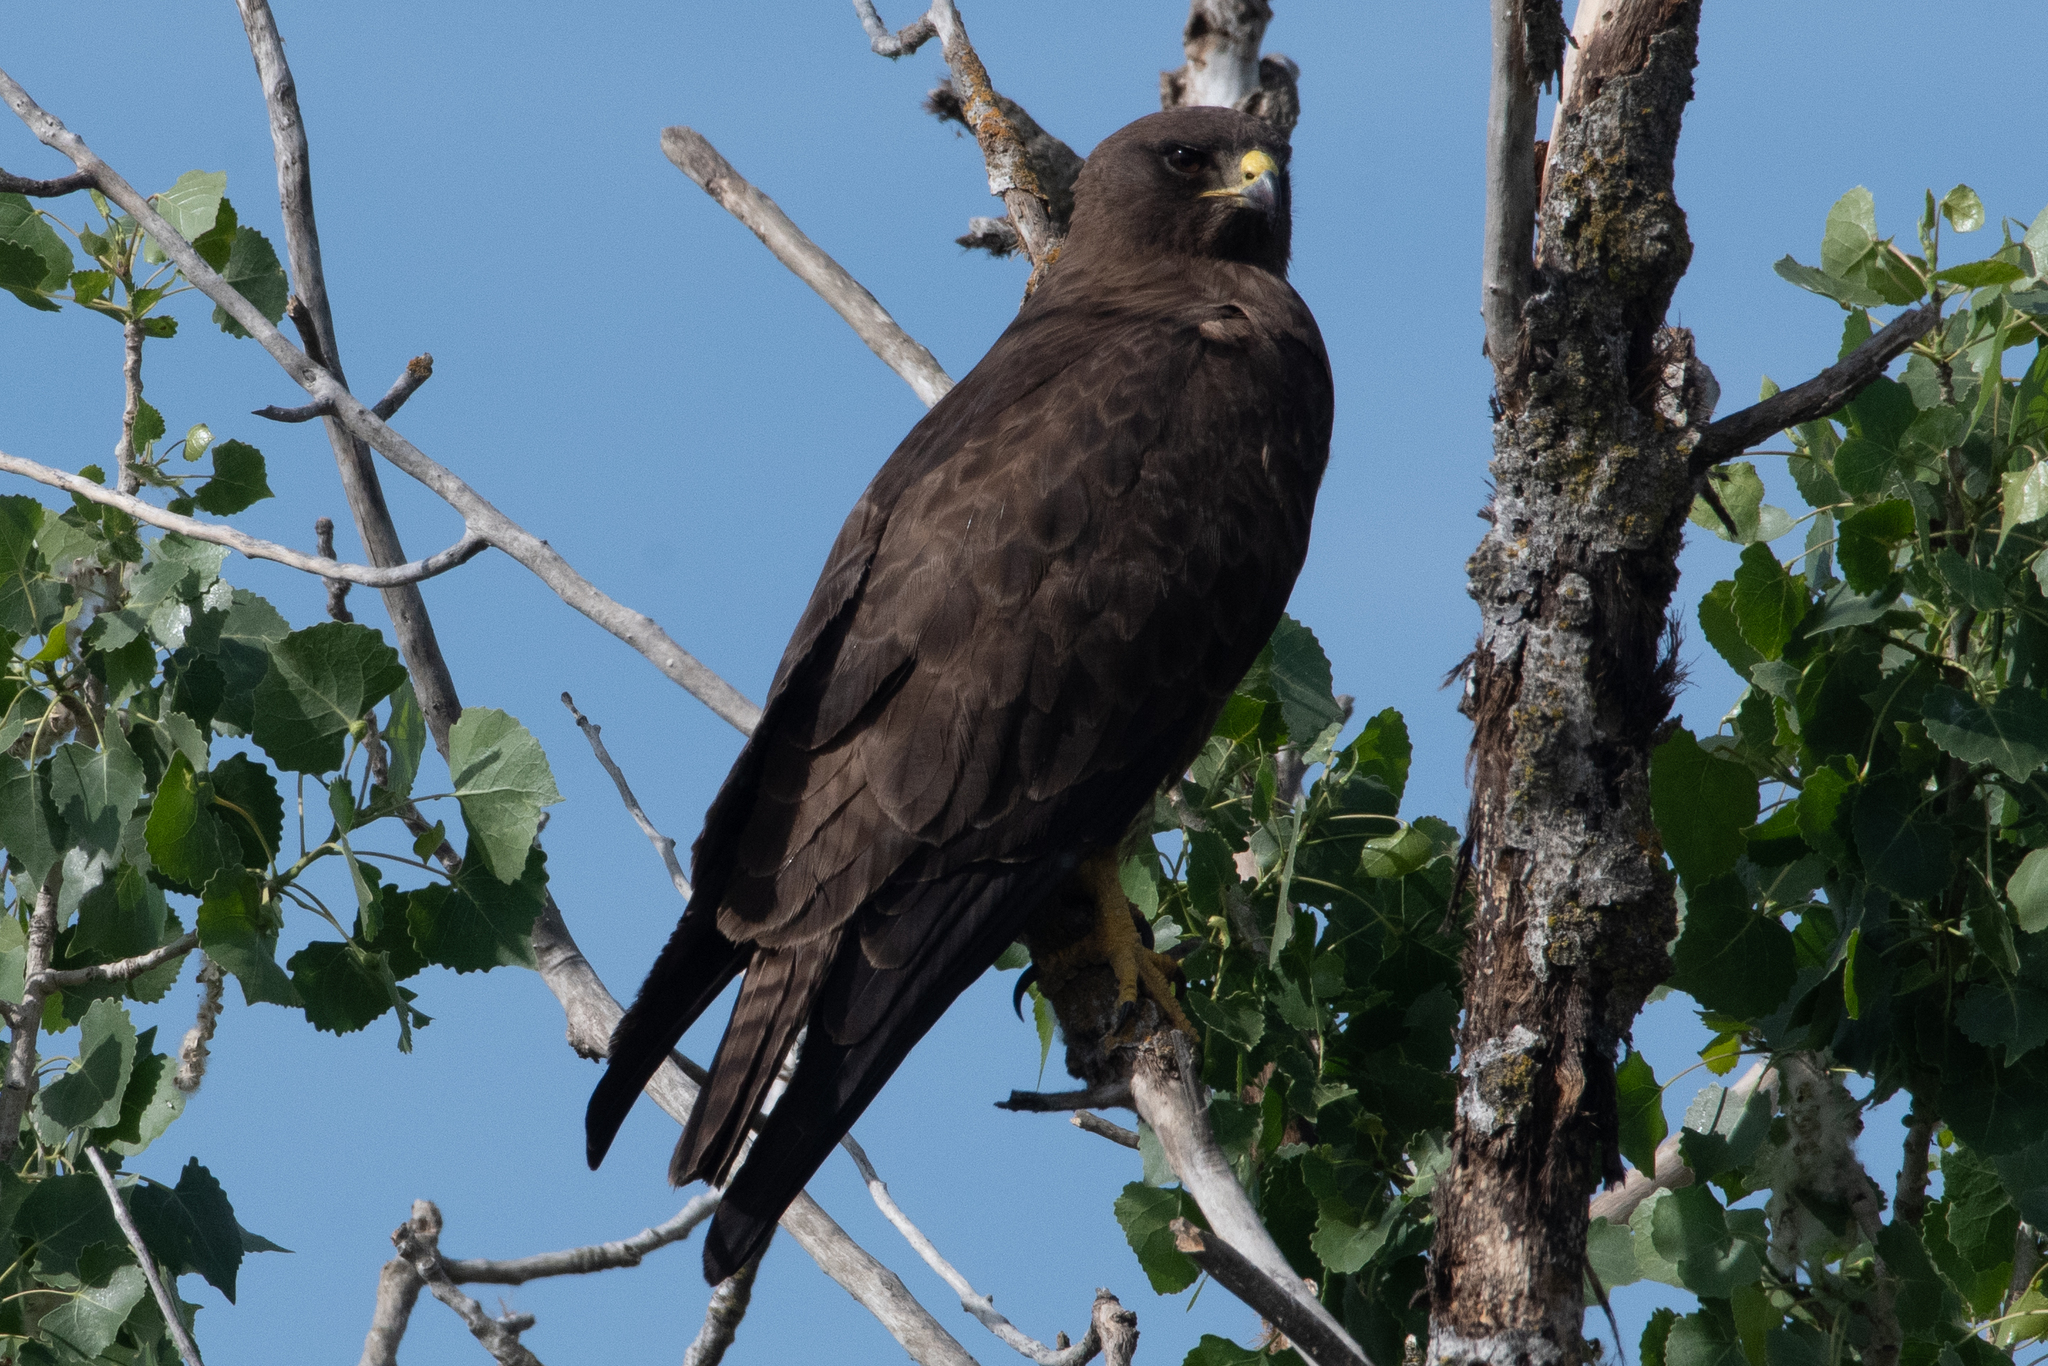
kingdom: Animalia
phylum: Chordata
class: Aves
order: Accipitriformes
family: Accipitridae
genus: Buteo
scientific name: Buteo swainsoni
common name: Swainson's hawk
